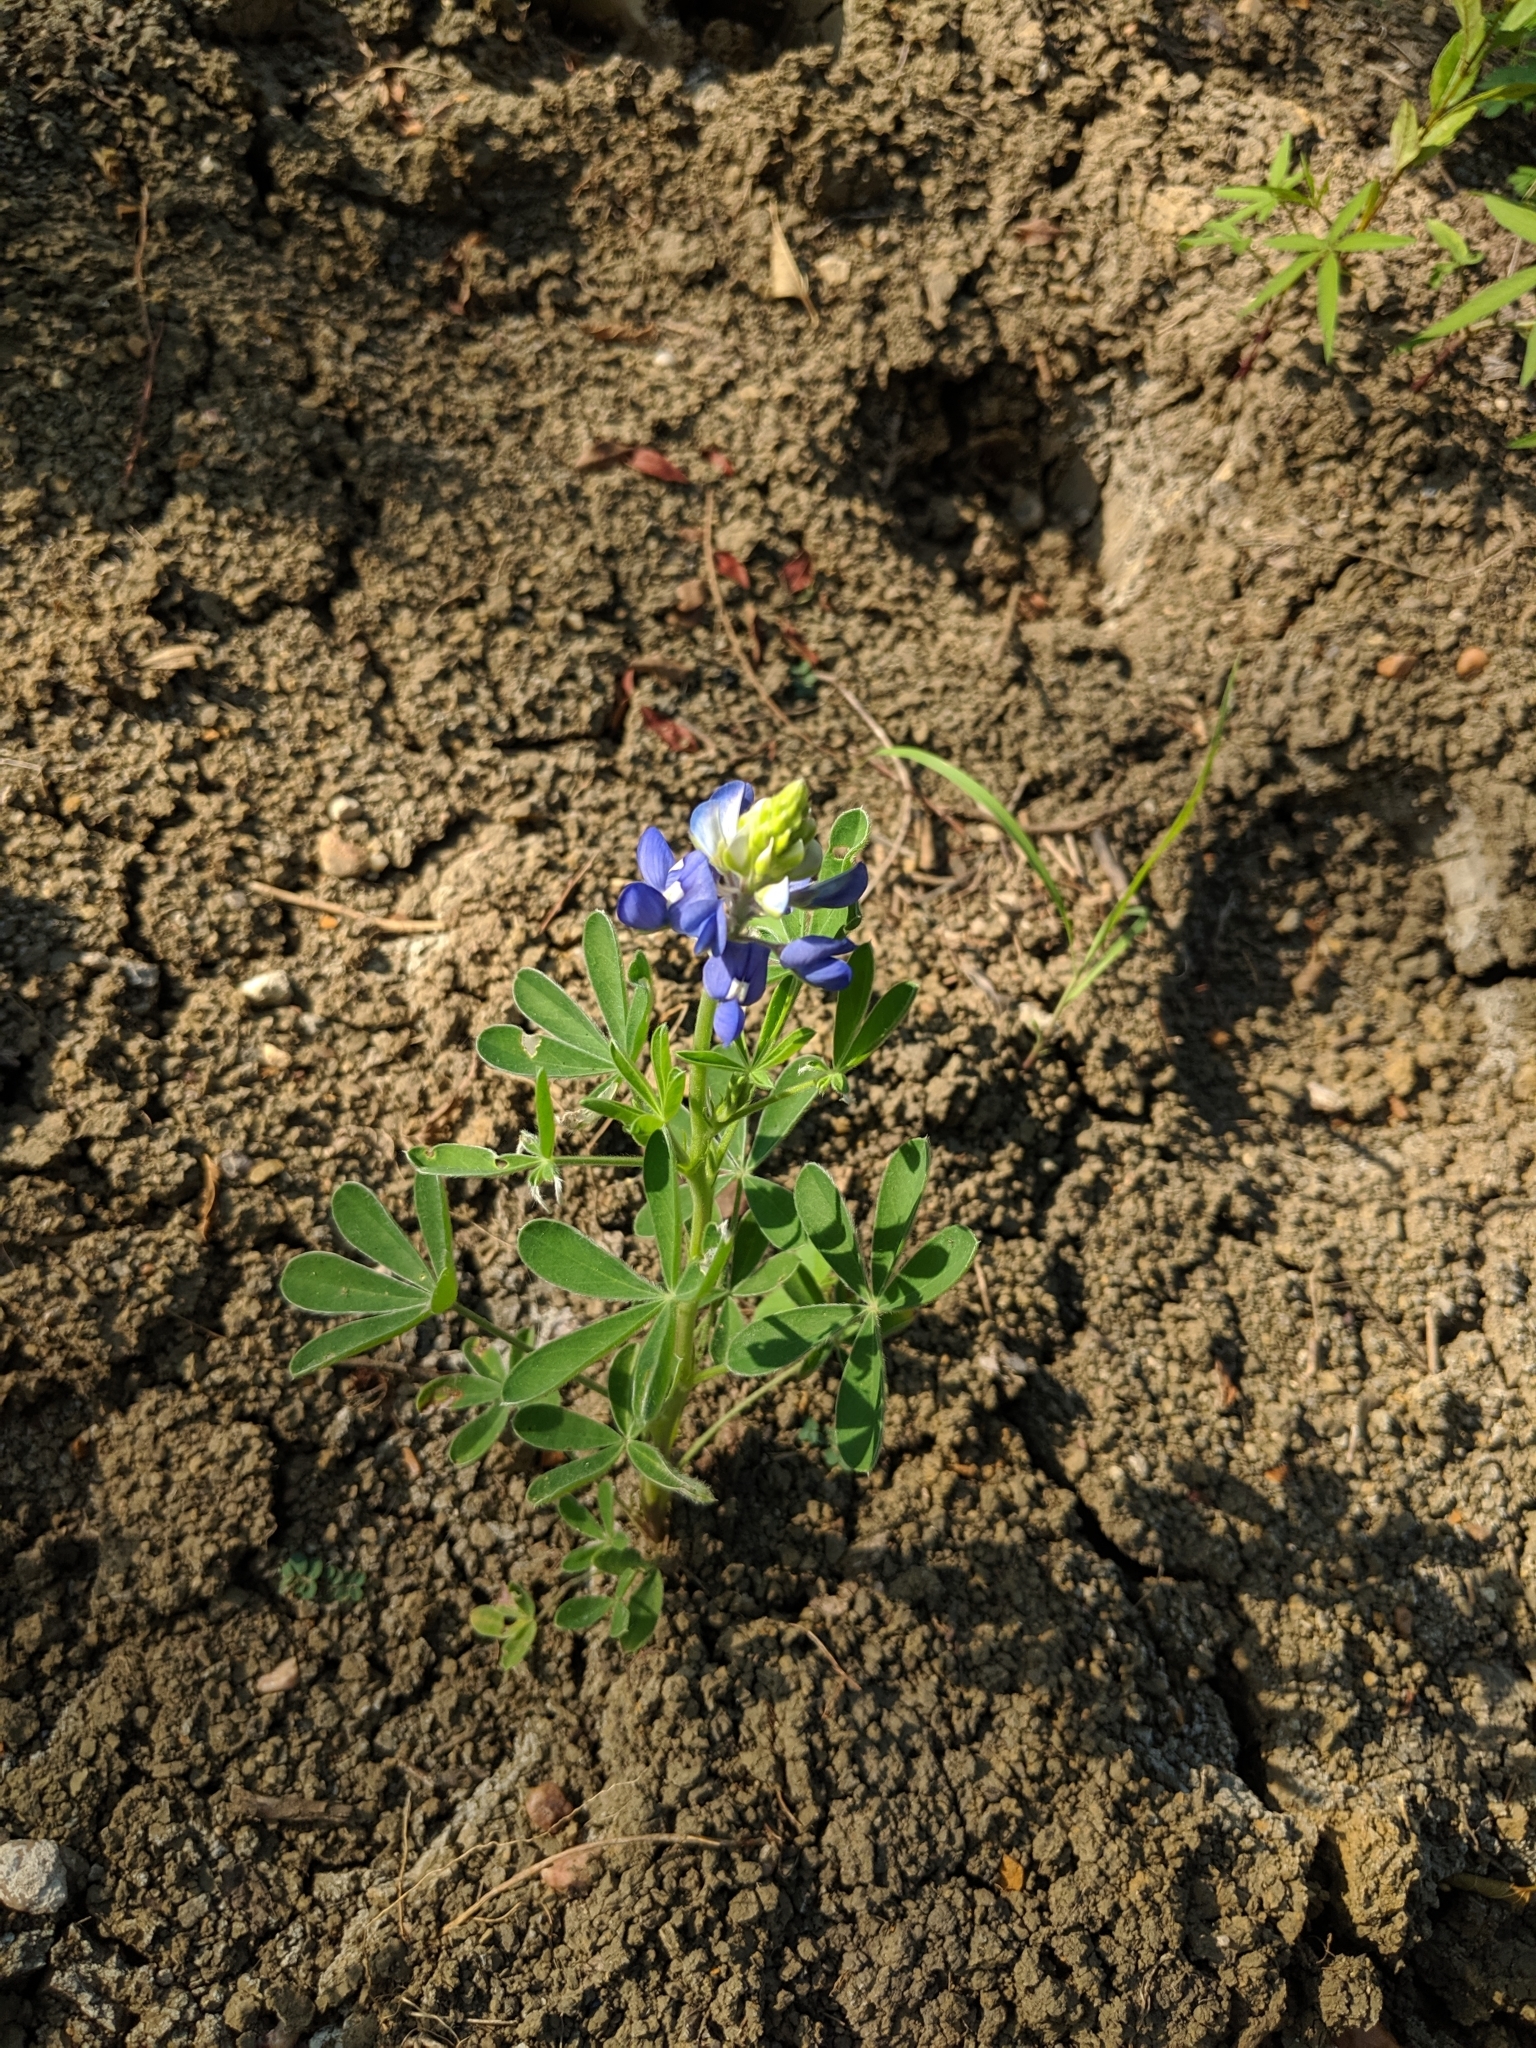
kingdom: Plantae
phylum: Tracheophyta
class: Magnoliopsida
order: Fabales
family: Fabaceae
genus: Lupinus
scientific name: Lupinus texensis
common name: Texas bluebonnet
